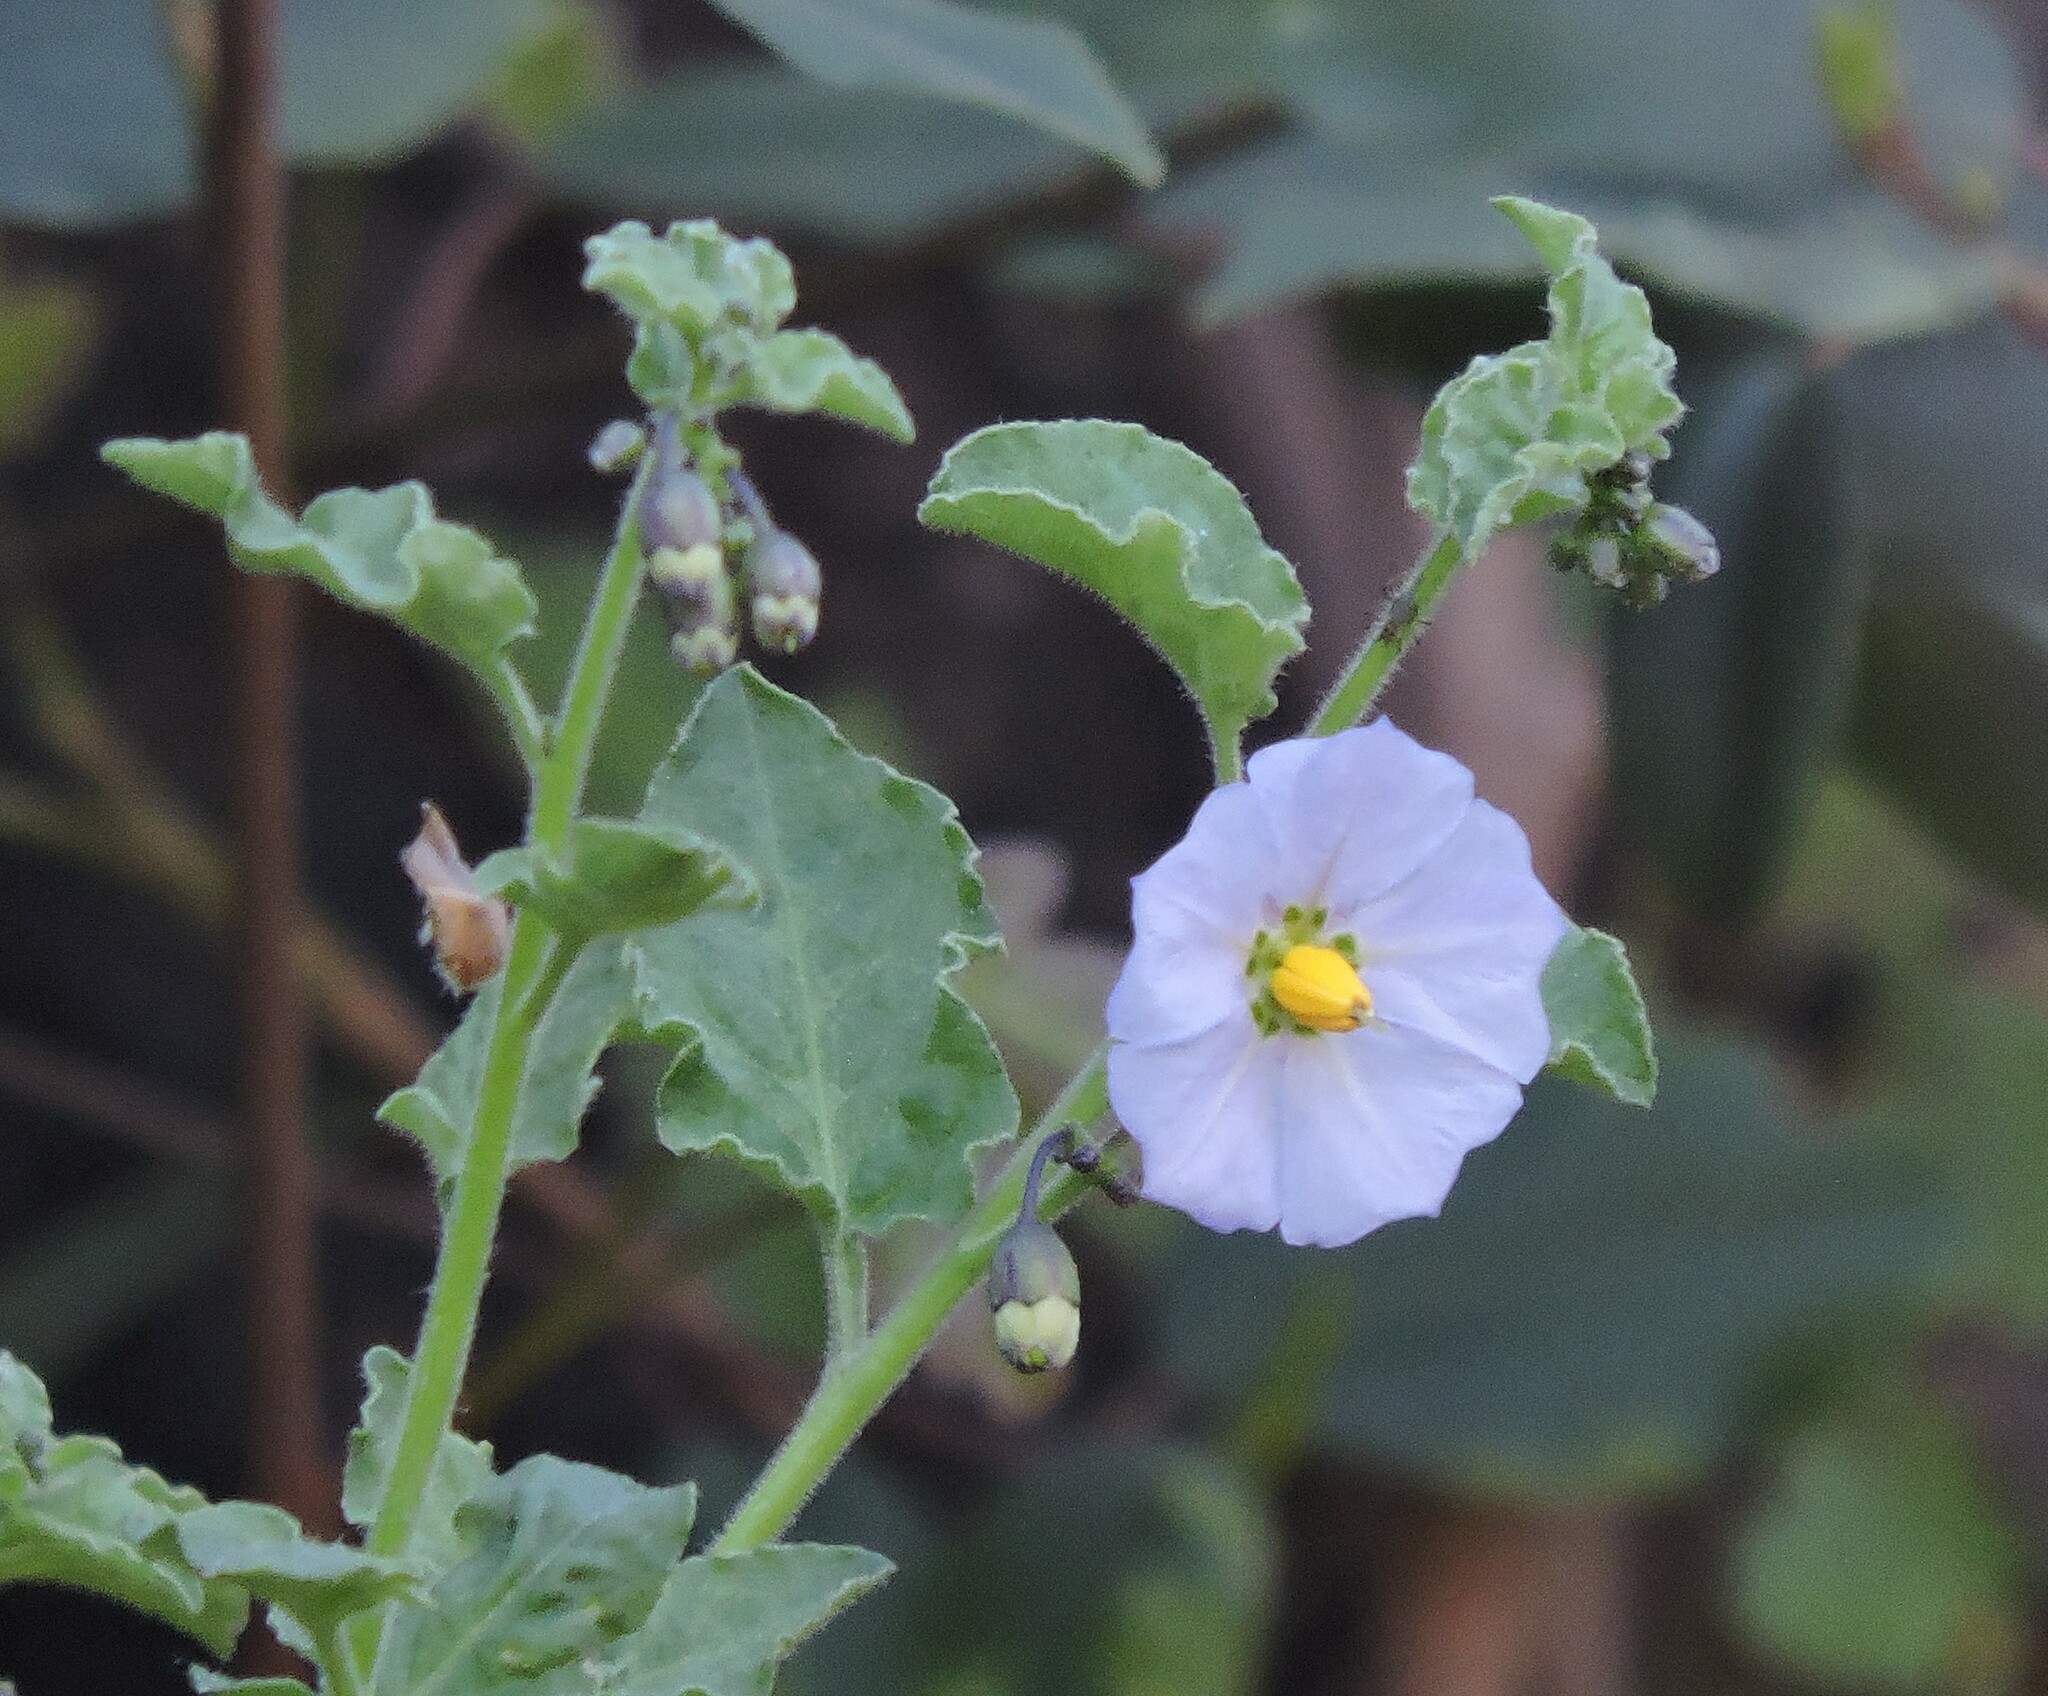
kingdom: Plantae
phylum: Tracheophyta
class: Magnoliopsida
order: Solanales
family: Solanaceae
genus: Solanum
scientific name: Solanum umbelliferum
